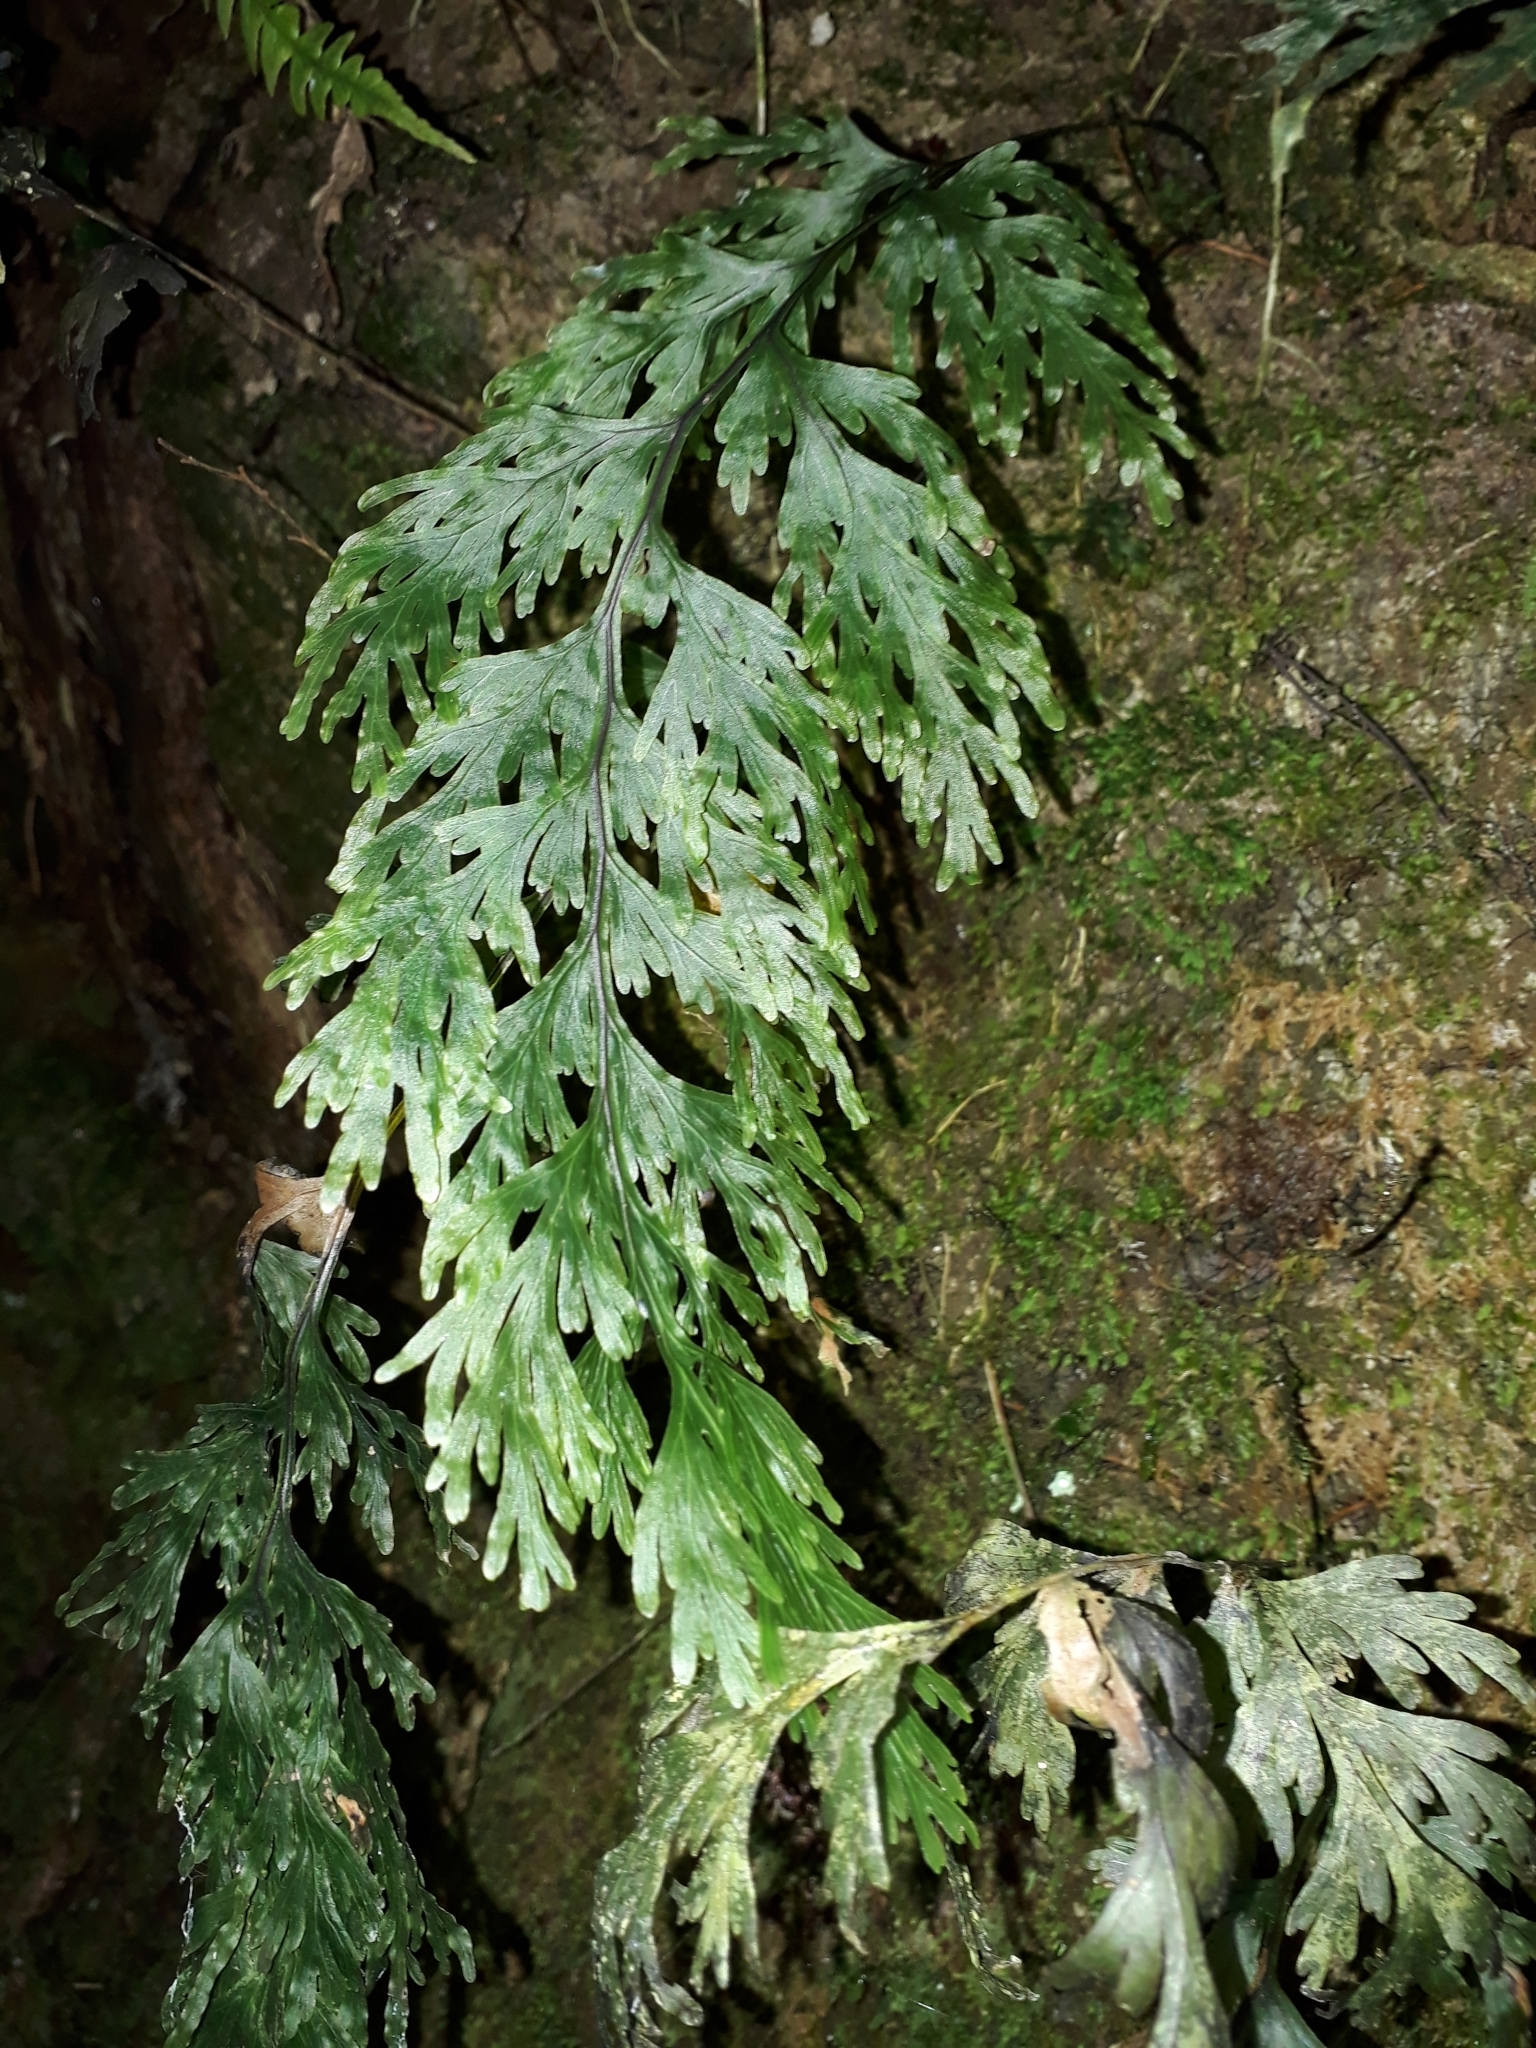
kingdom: Plantae
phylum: Tracheophyta
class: Polypodiopsida
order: Hymenophyllales
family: Hymenophyllaceae
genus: Hymenophyllum
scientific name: Hymenophyllum dilatatum
